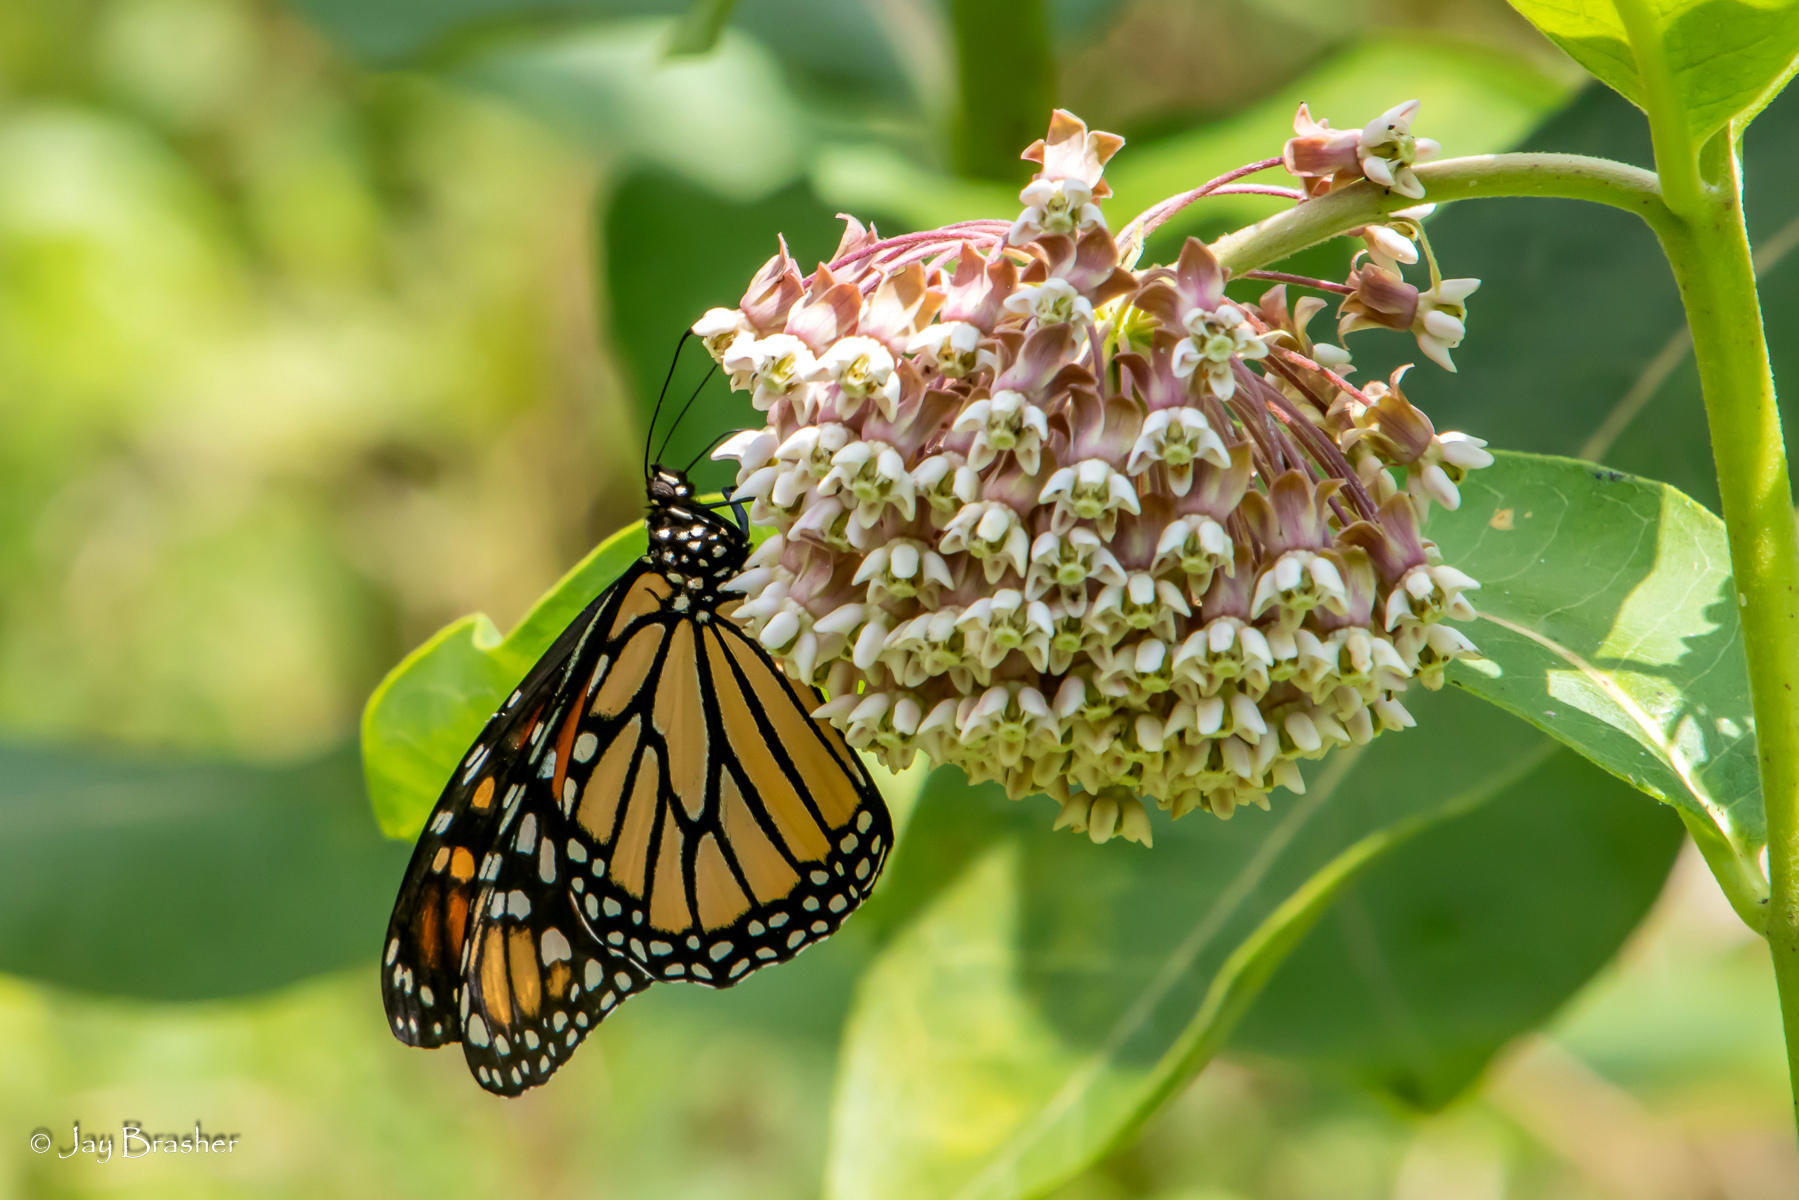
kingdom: Animalia
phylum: Arthropoda
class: Insecta
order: Lepidoptera
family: Nymphalidae
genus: Danaus
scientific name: Danaus plexippus
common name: Monarch
